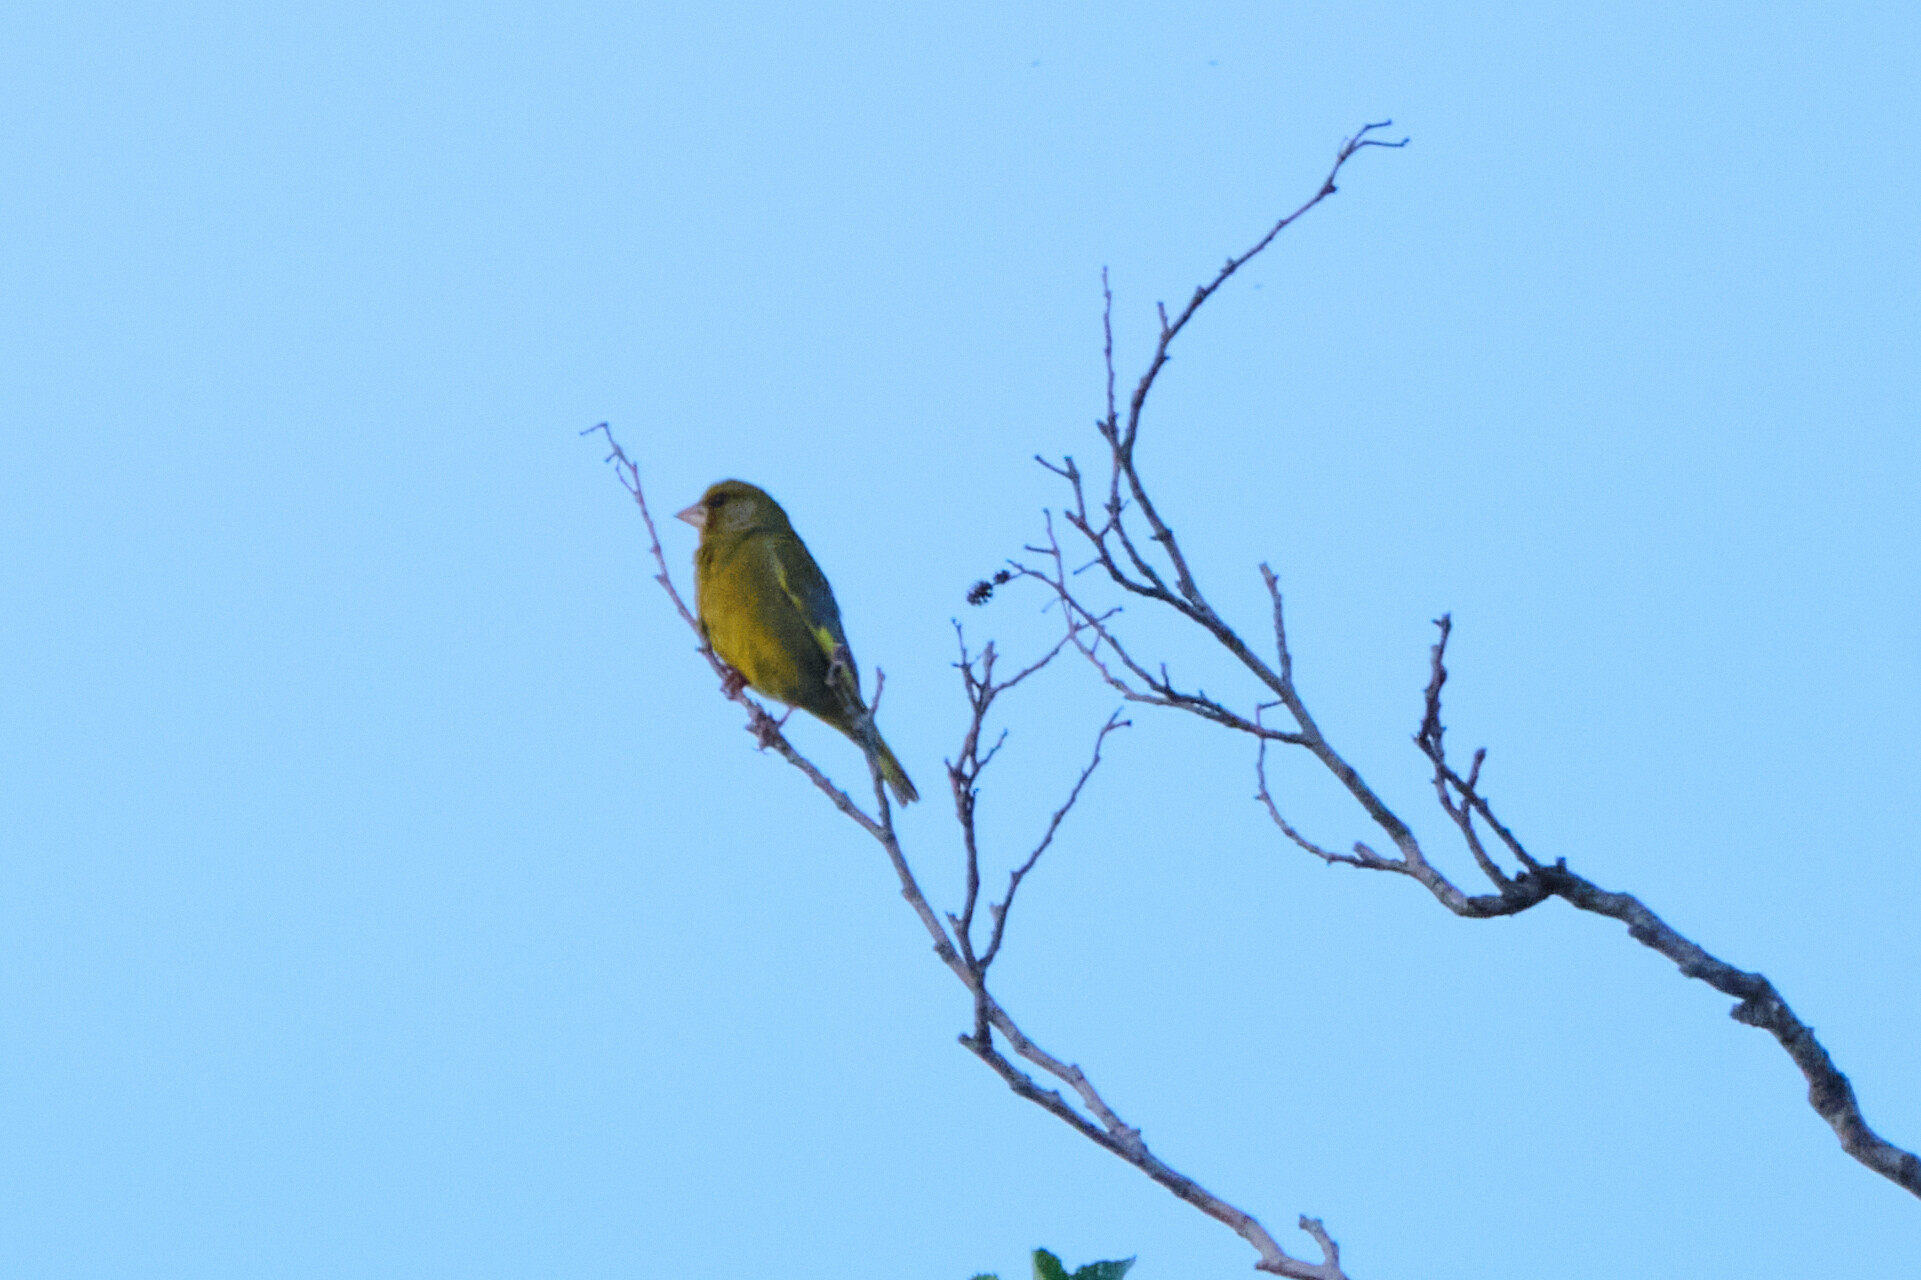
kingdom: Plantae
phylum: Tracheophyta
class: Liliopsida
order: Poales
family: Poaceae
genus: Chloris
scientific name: Chloris chloris
